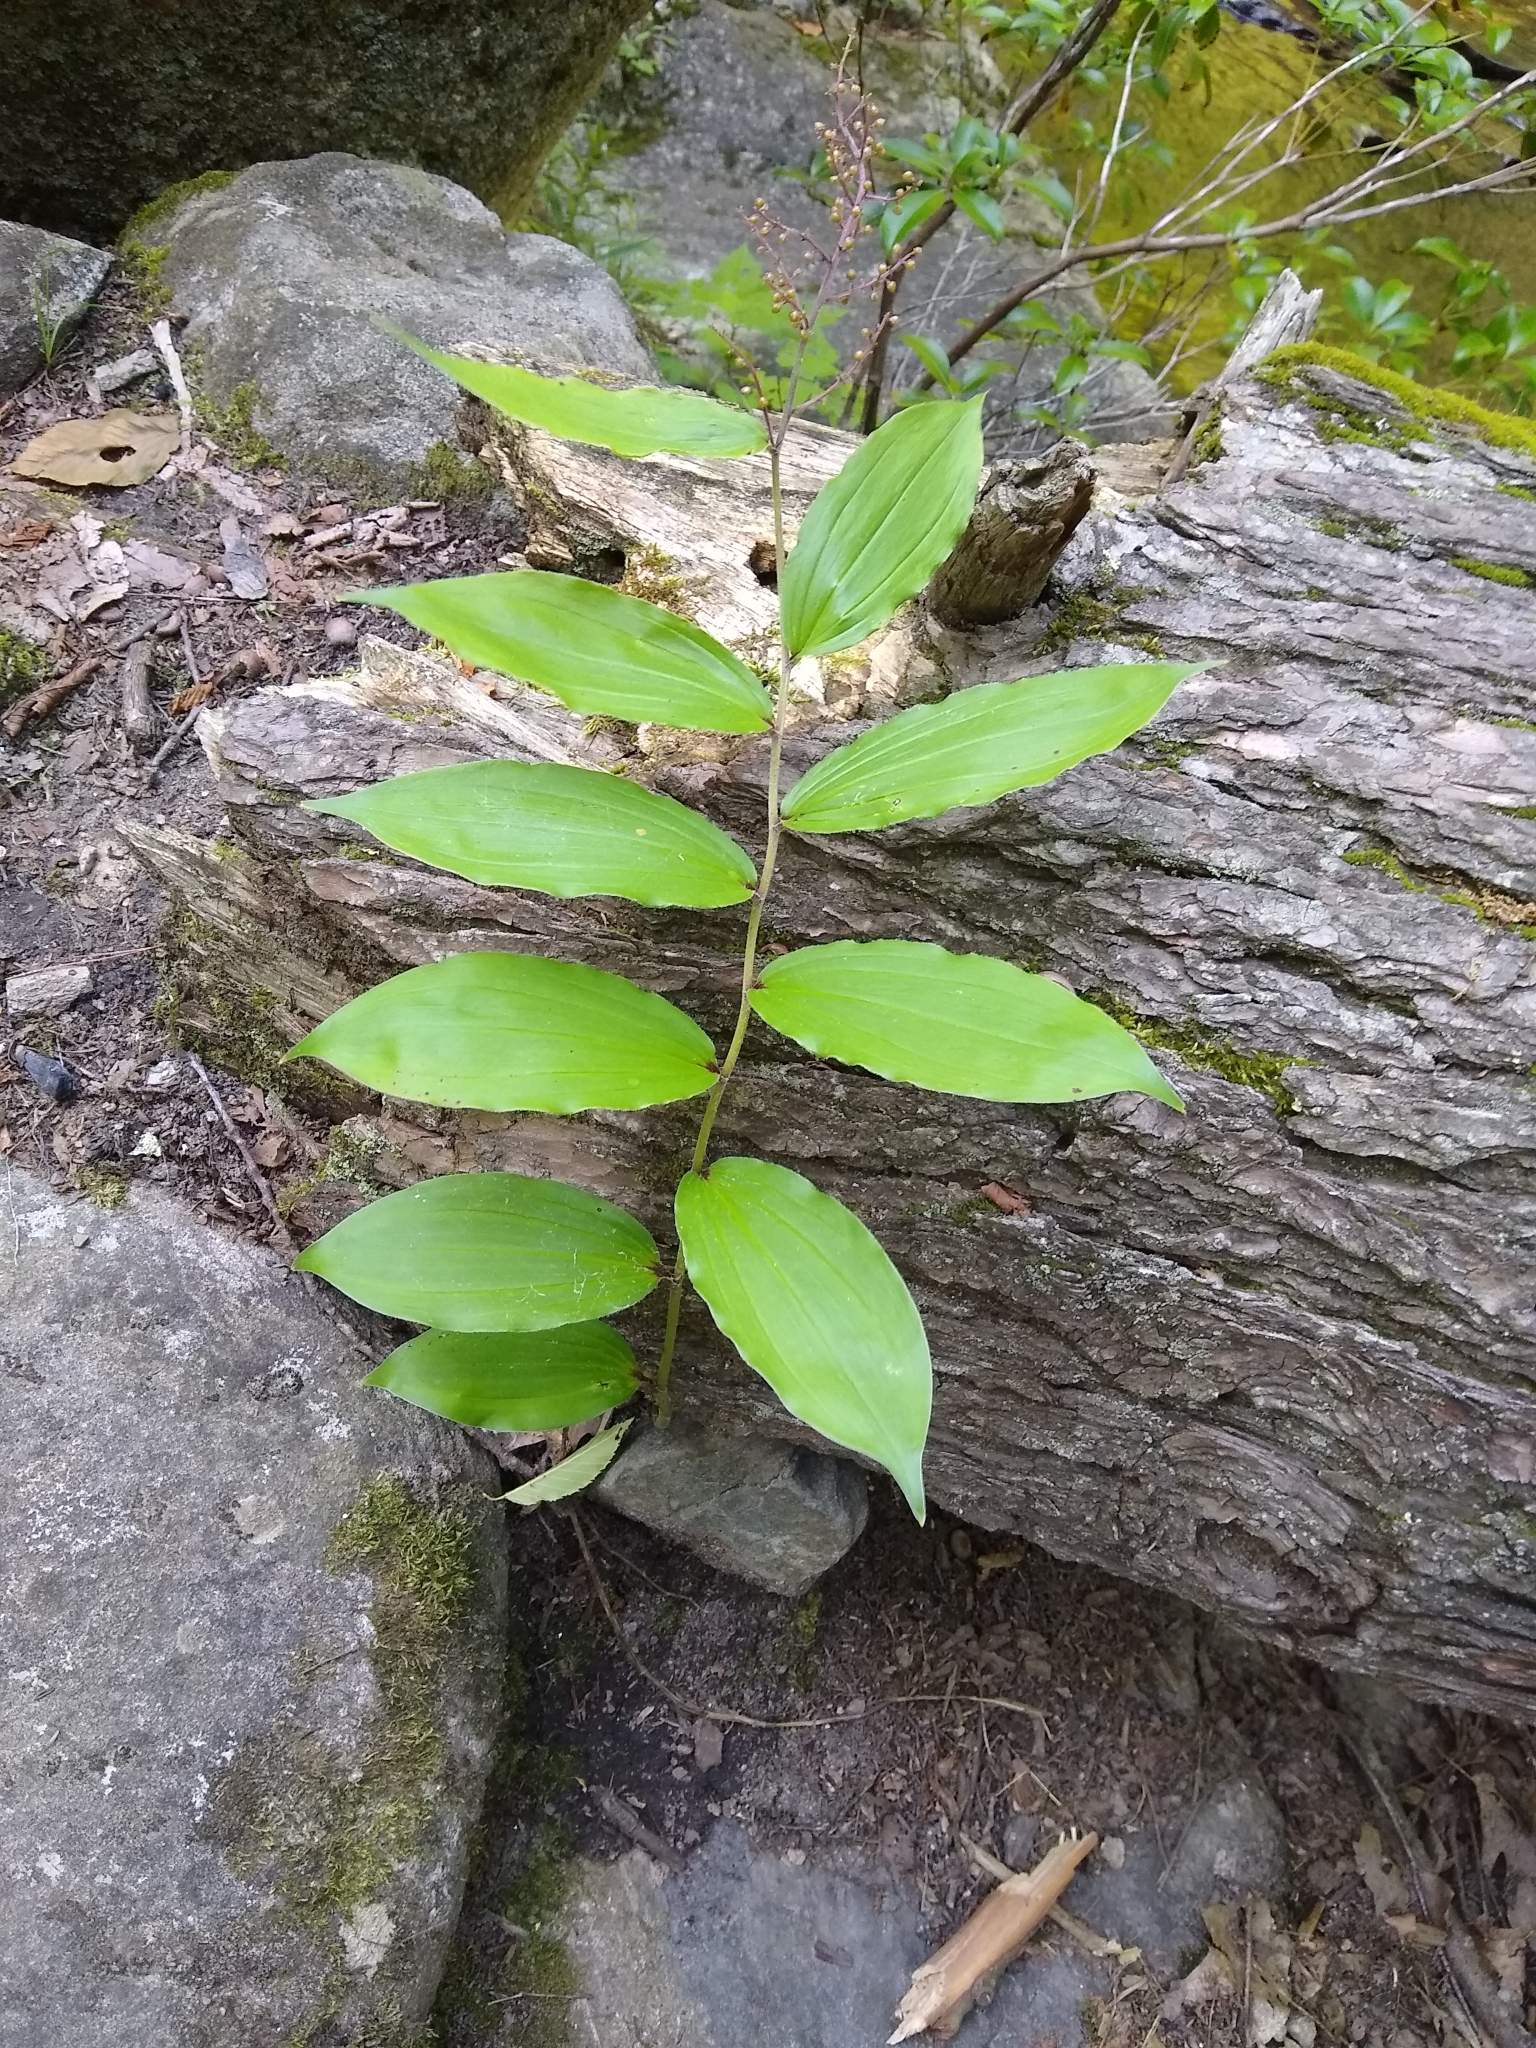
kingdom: Plantae
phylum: Tracheophyta
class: Liliopsida
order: Asparagales
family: Asparagaceae
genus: Maianthemum
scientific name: Maianthemum racemosum
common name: False spikenard
